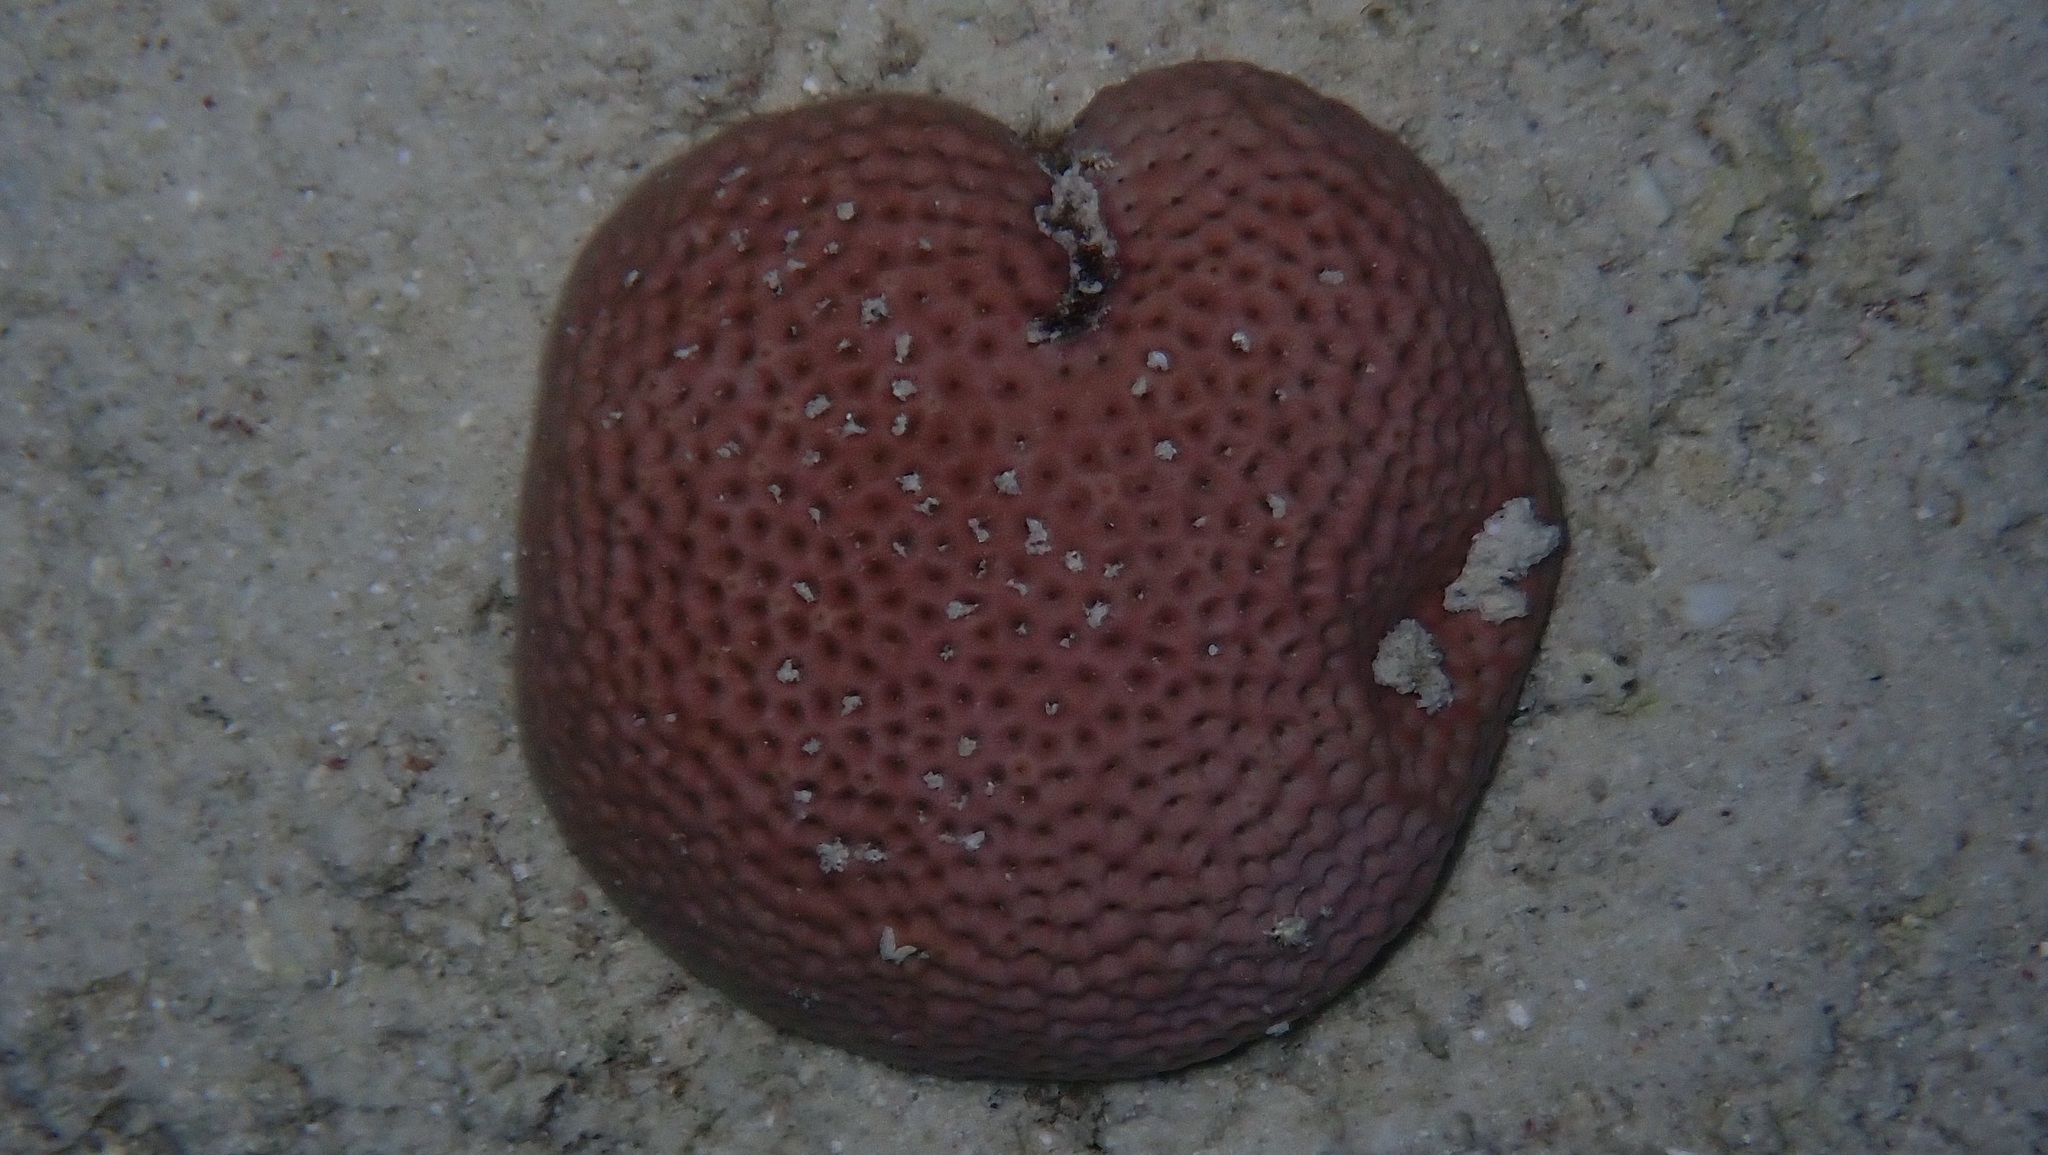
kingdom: Animalia
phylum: Cnidaria
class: Anthozoa
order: Scleractinia
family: Rhizangiidae
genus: Siderastrea
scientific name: Siderastrea siderea
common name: Massive starlet coral
